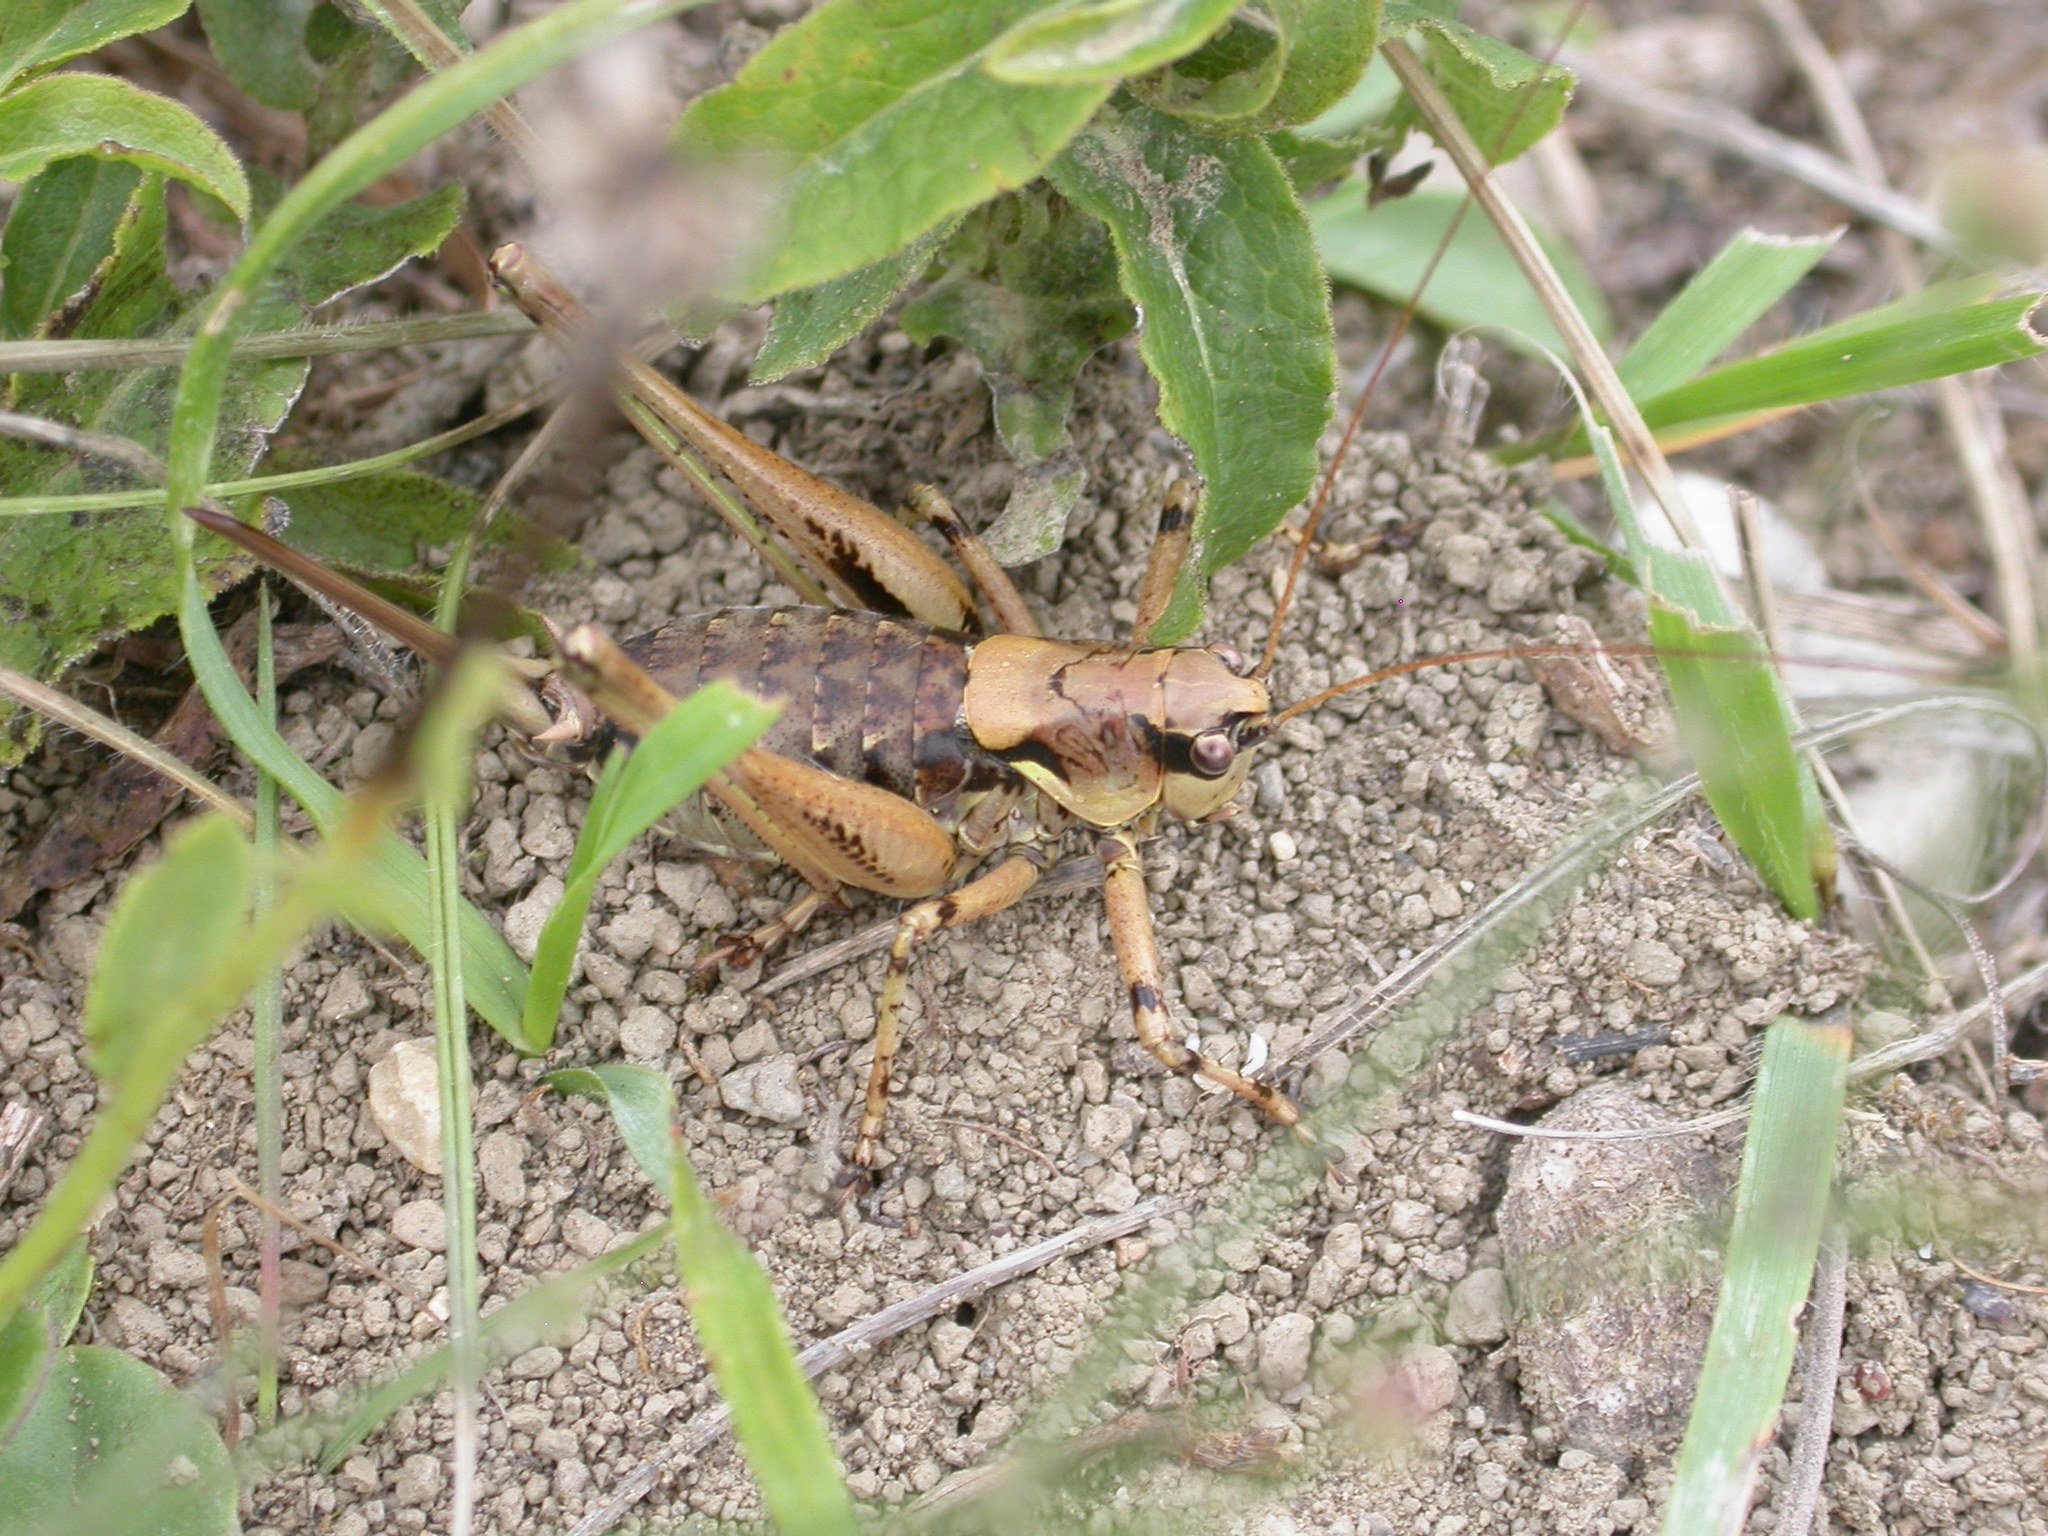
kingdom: Animalia
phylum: Arthropoda
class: Insecta
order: Orthoptera
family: Tettigoniidae
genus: Antaxius
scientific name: Antaxius pedestris
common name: Common mountain bush-cricket
